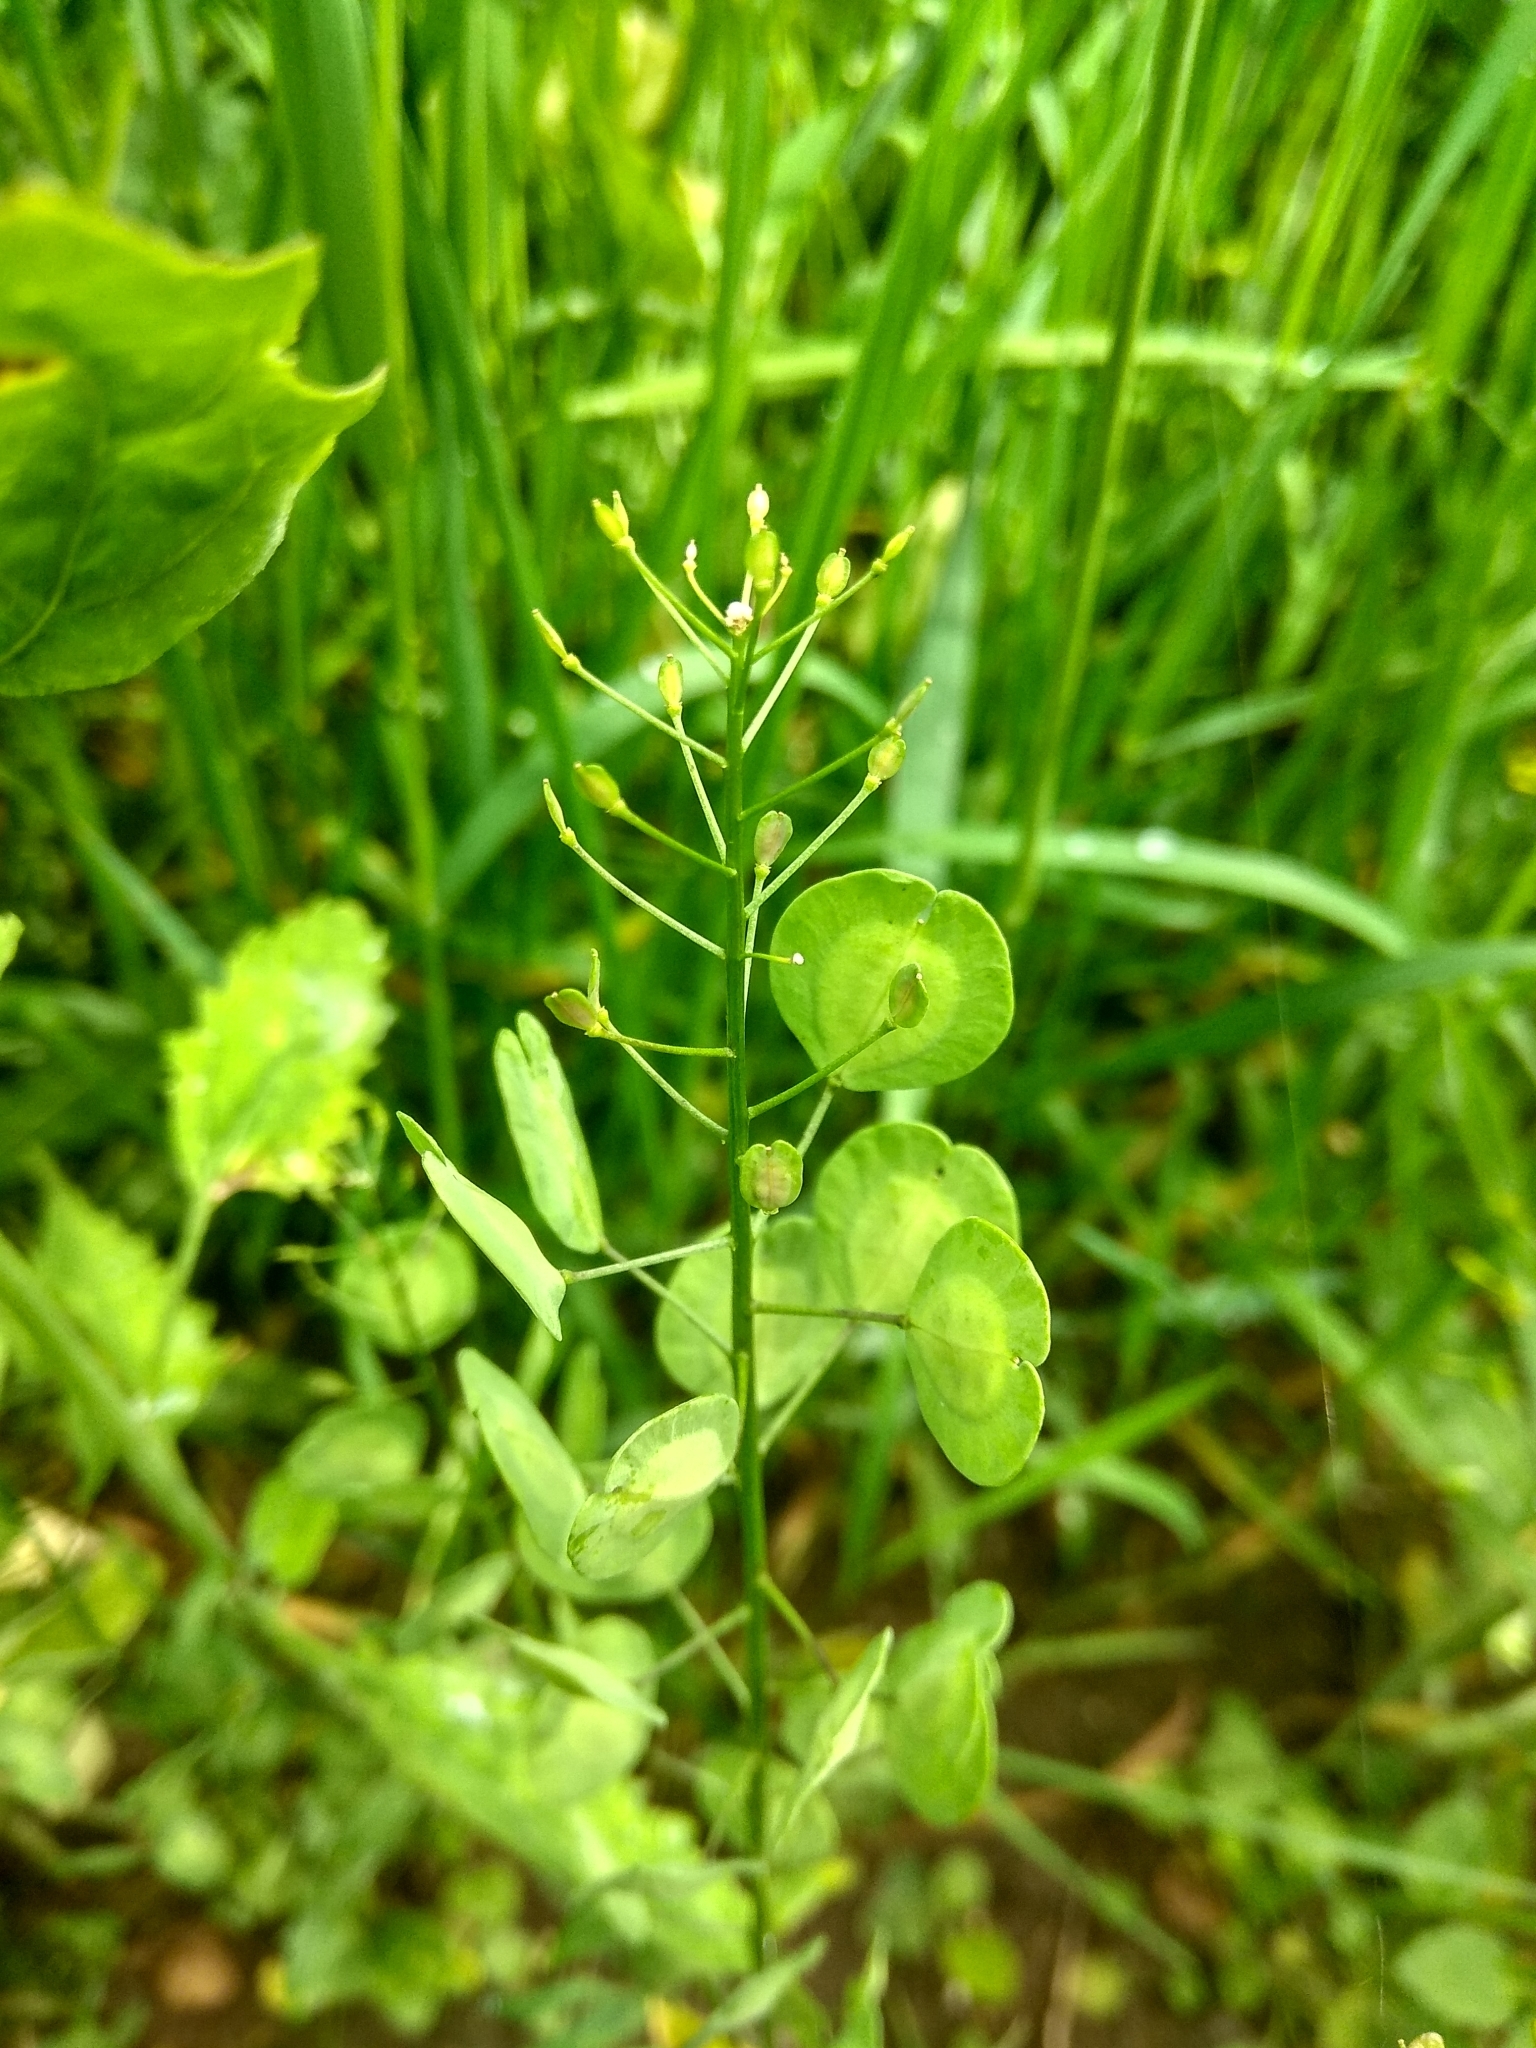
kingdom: Plantae
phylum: Tracheophyta
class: Magnoliopsida
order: Brassicales
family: Brassicaceae
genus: Thlaspi
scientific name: Thlaspi arvense
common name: Field pennycress
